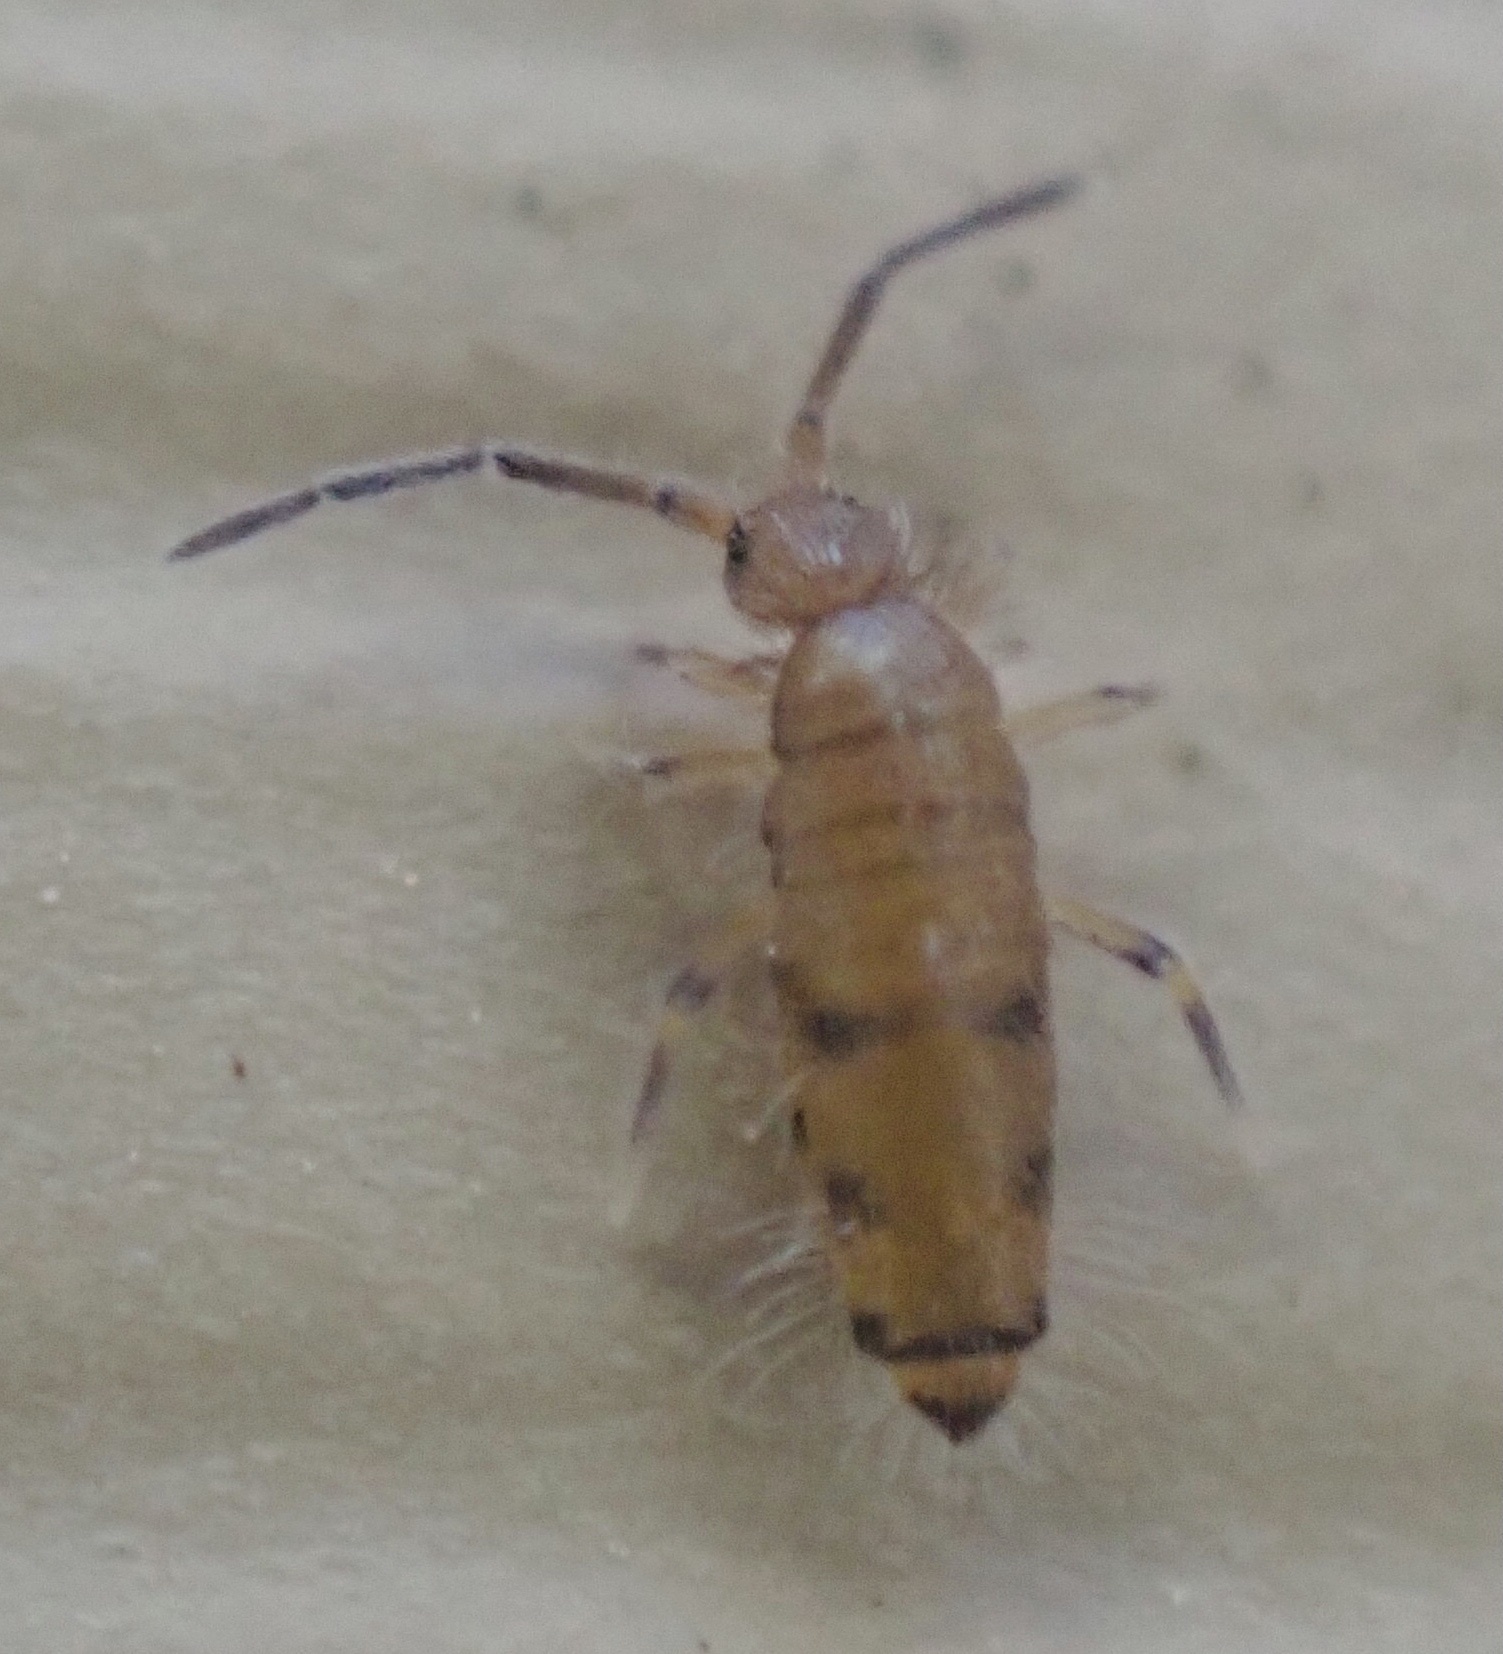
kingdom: Animalia
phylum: Arthropoda
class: Collembola
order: Entomobryomorpha
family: Entomobryidae
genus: Willowsia
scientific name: Willowsia nigromaculata
